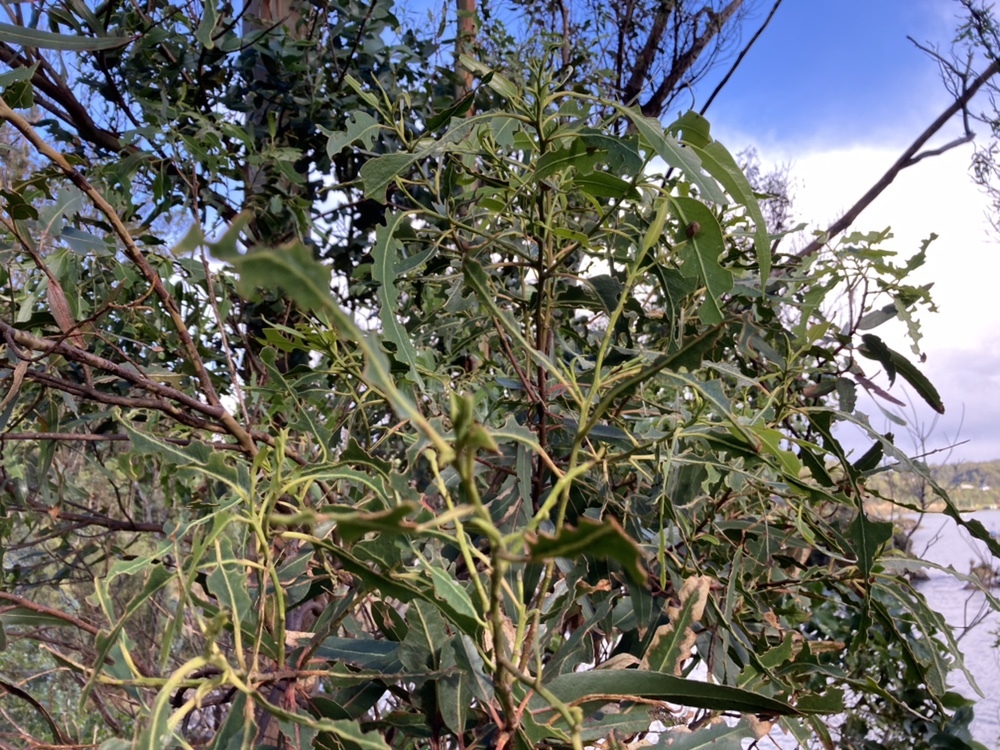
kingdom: Plantae
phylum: Tracheophyta
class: Magnoliopsida
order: Myrtales
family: Myrtaceae
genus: Eucalyptus
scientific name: Eucalyptus globulus
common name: Southern blue-gum
